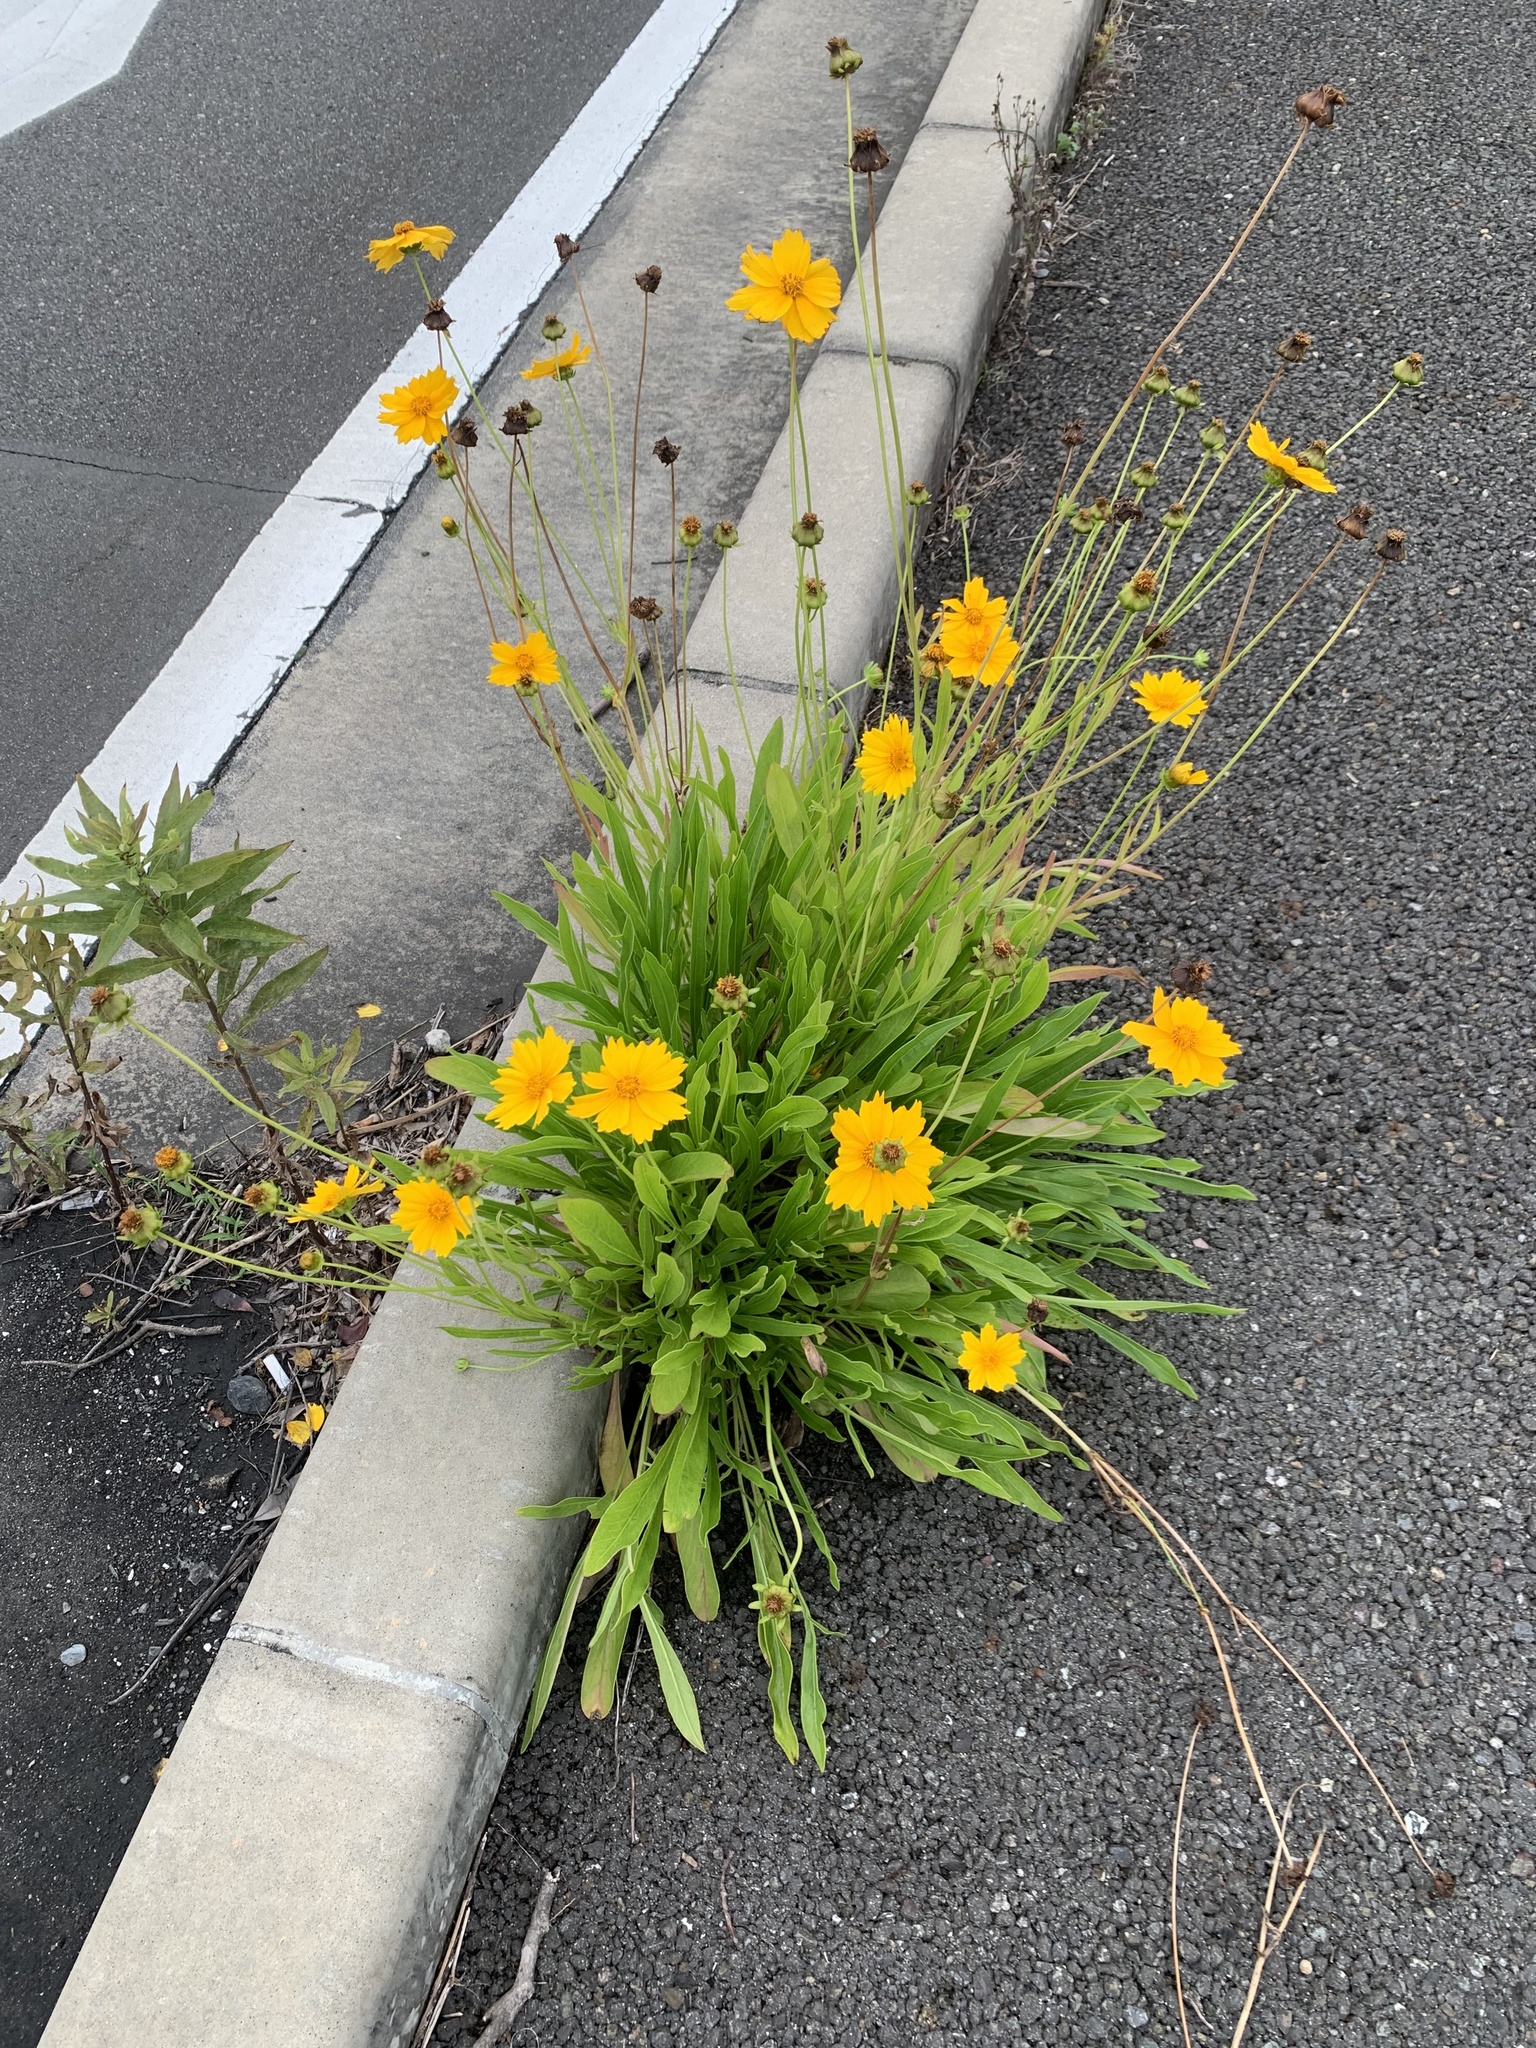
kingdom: Plantae
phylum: Tracheophyta
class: Magnoliopsida
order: Asterales
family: Asteraceae
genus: Coreopsis
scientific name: Coreopsis lanceolata
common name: Garden coreopsis
